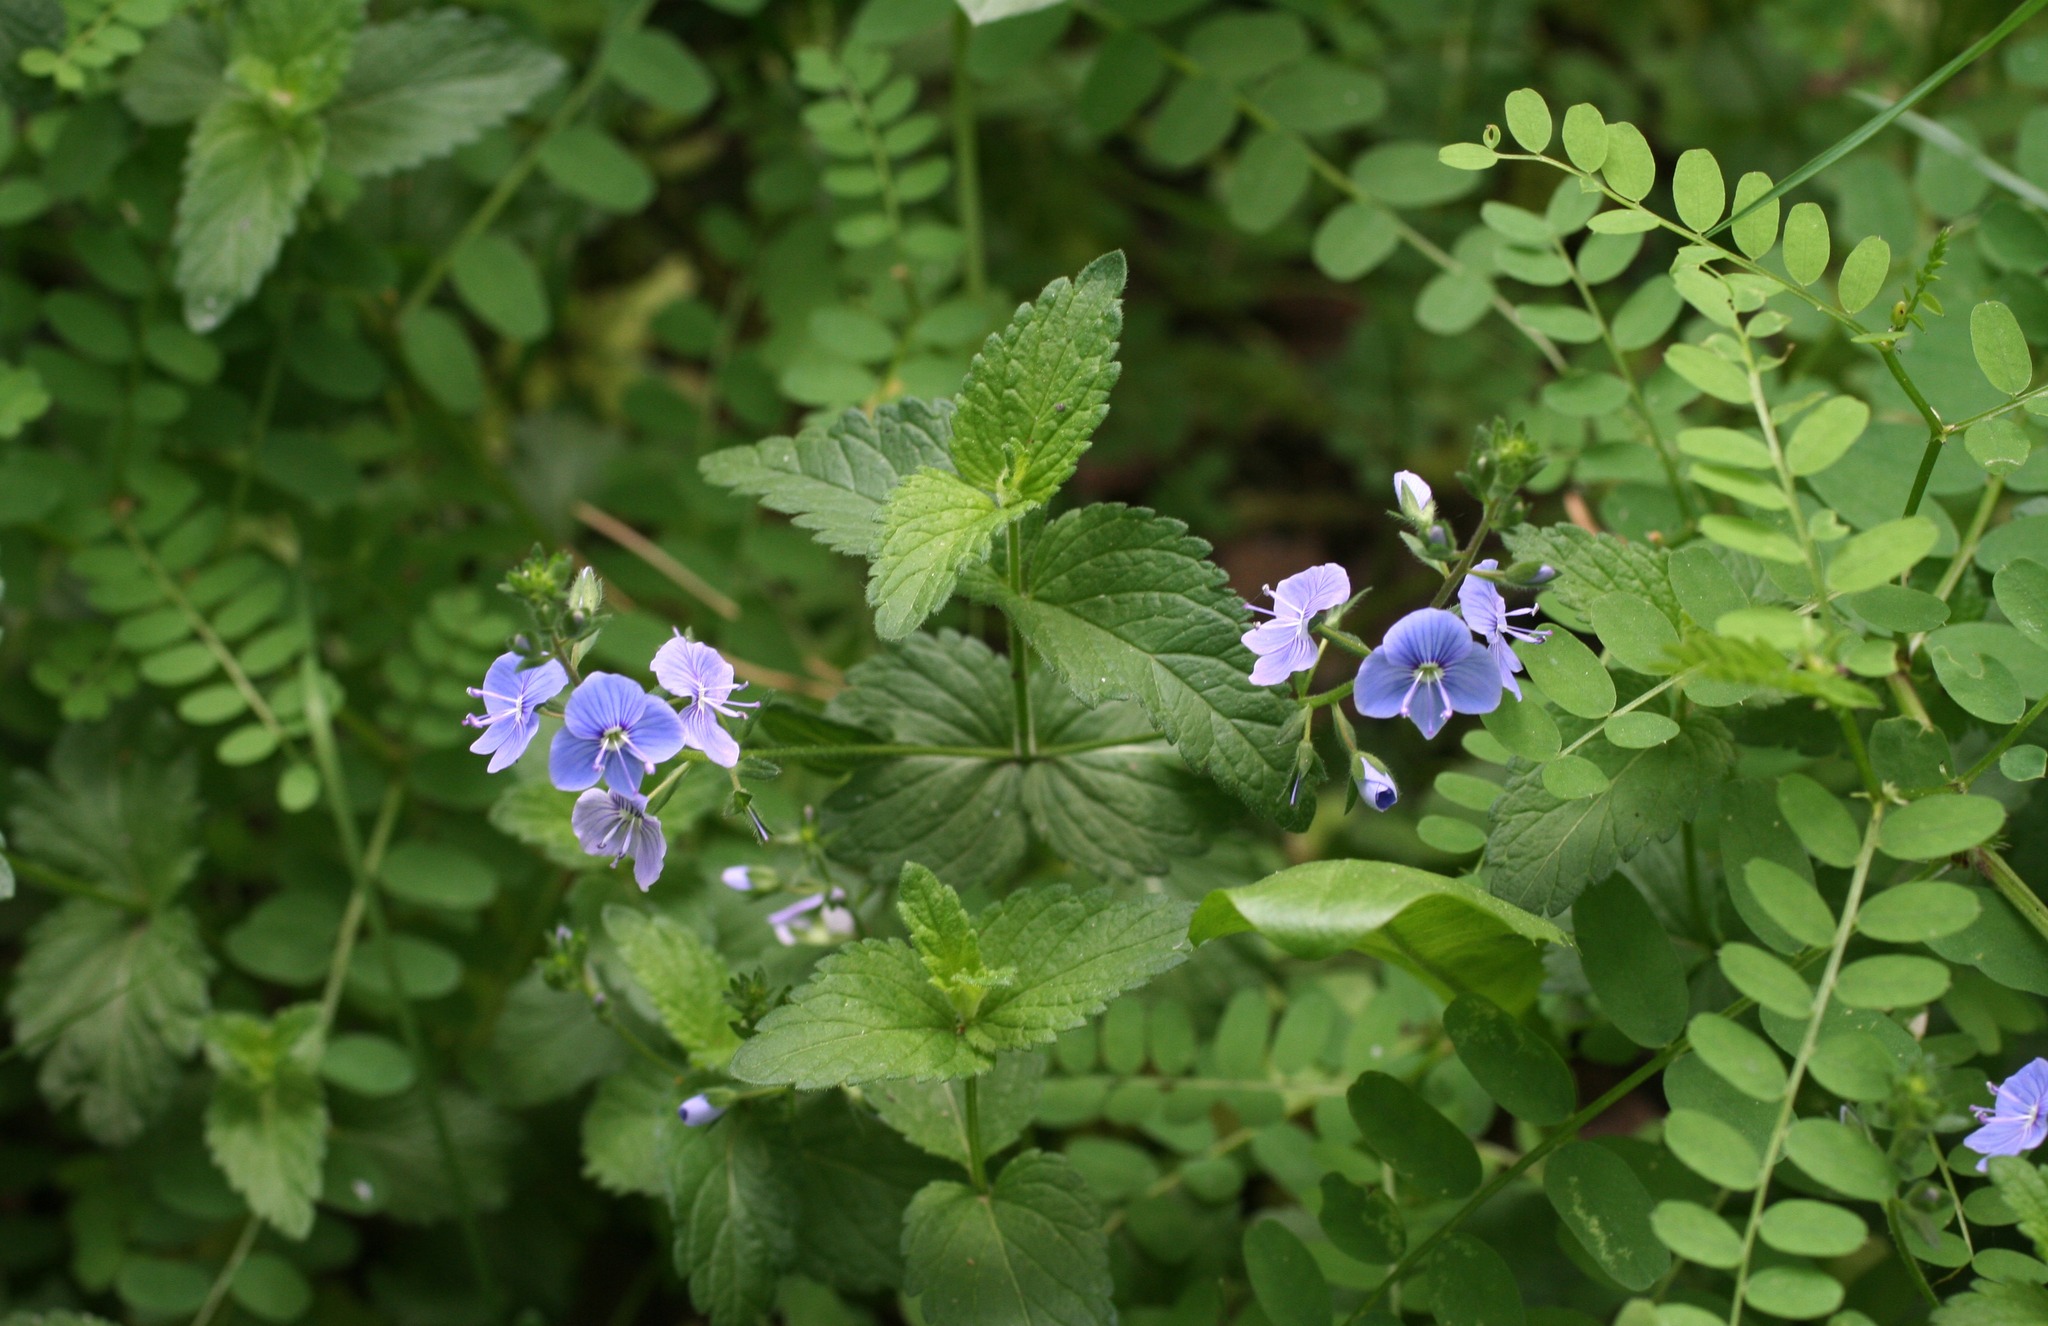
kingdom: Plantae
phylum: Tracheophyta
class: Magnoliopsida
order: Lamiales
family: Plantaginaceae
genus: Veronica
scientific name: Veronica chamaedrys
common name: Germander speedwell
